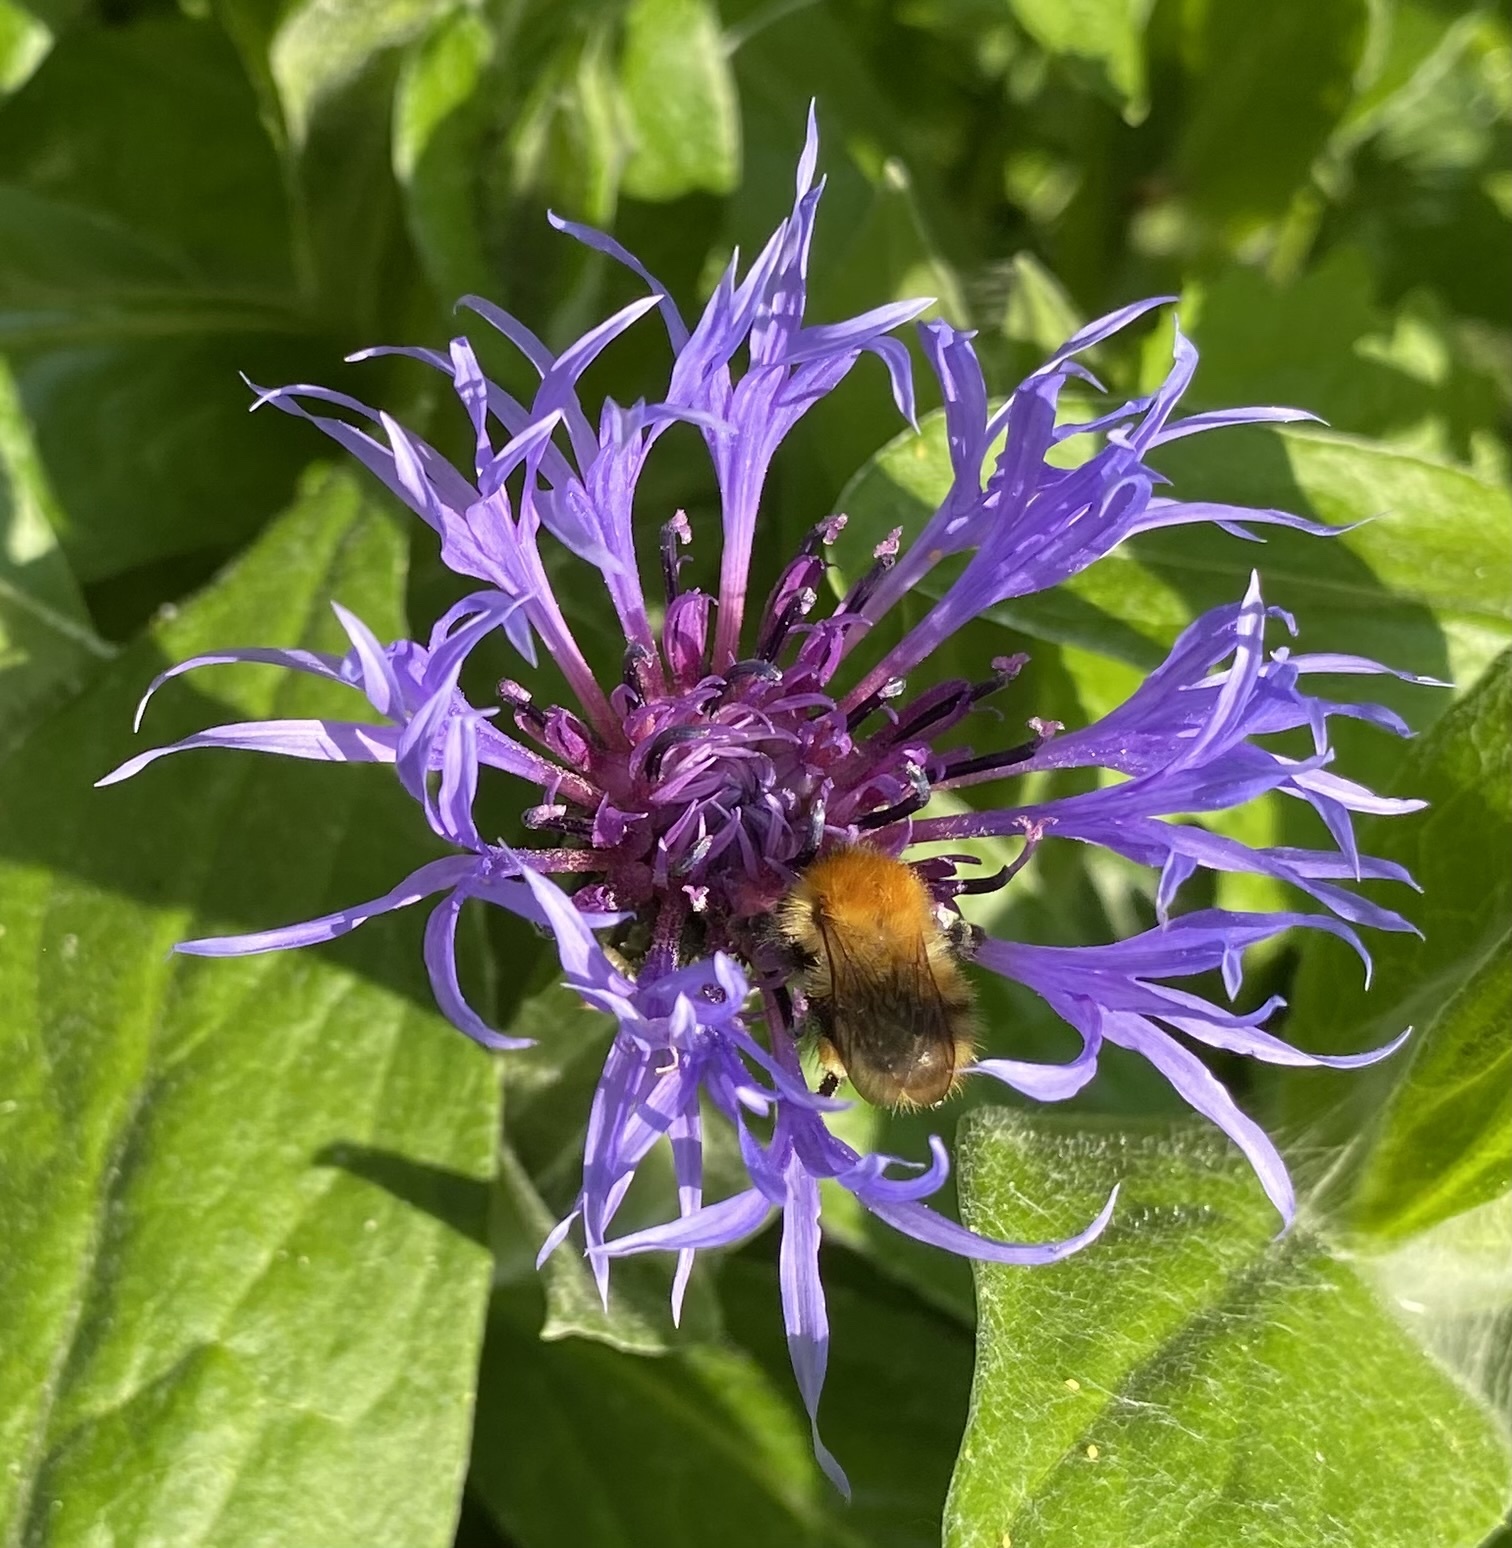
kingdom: Animalia
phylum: Arthropoda
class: Insecta
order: Hymenoptera
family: Apidae
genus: Bombus
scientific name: Bombus pascuorum
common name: Common carder bee
